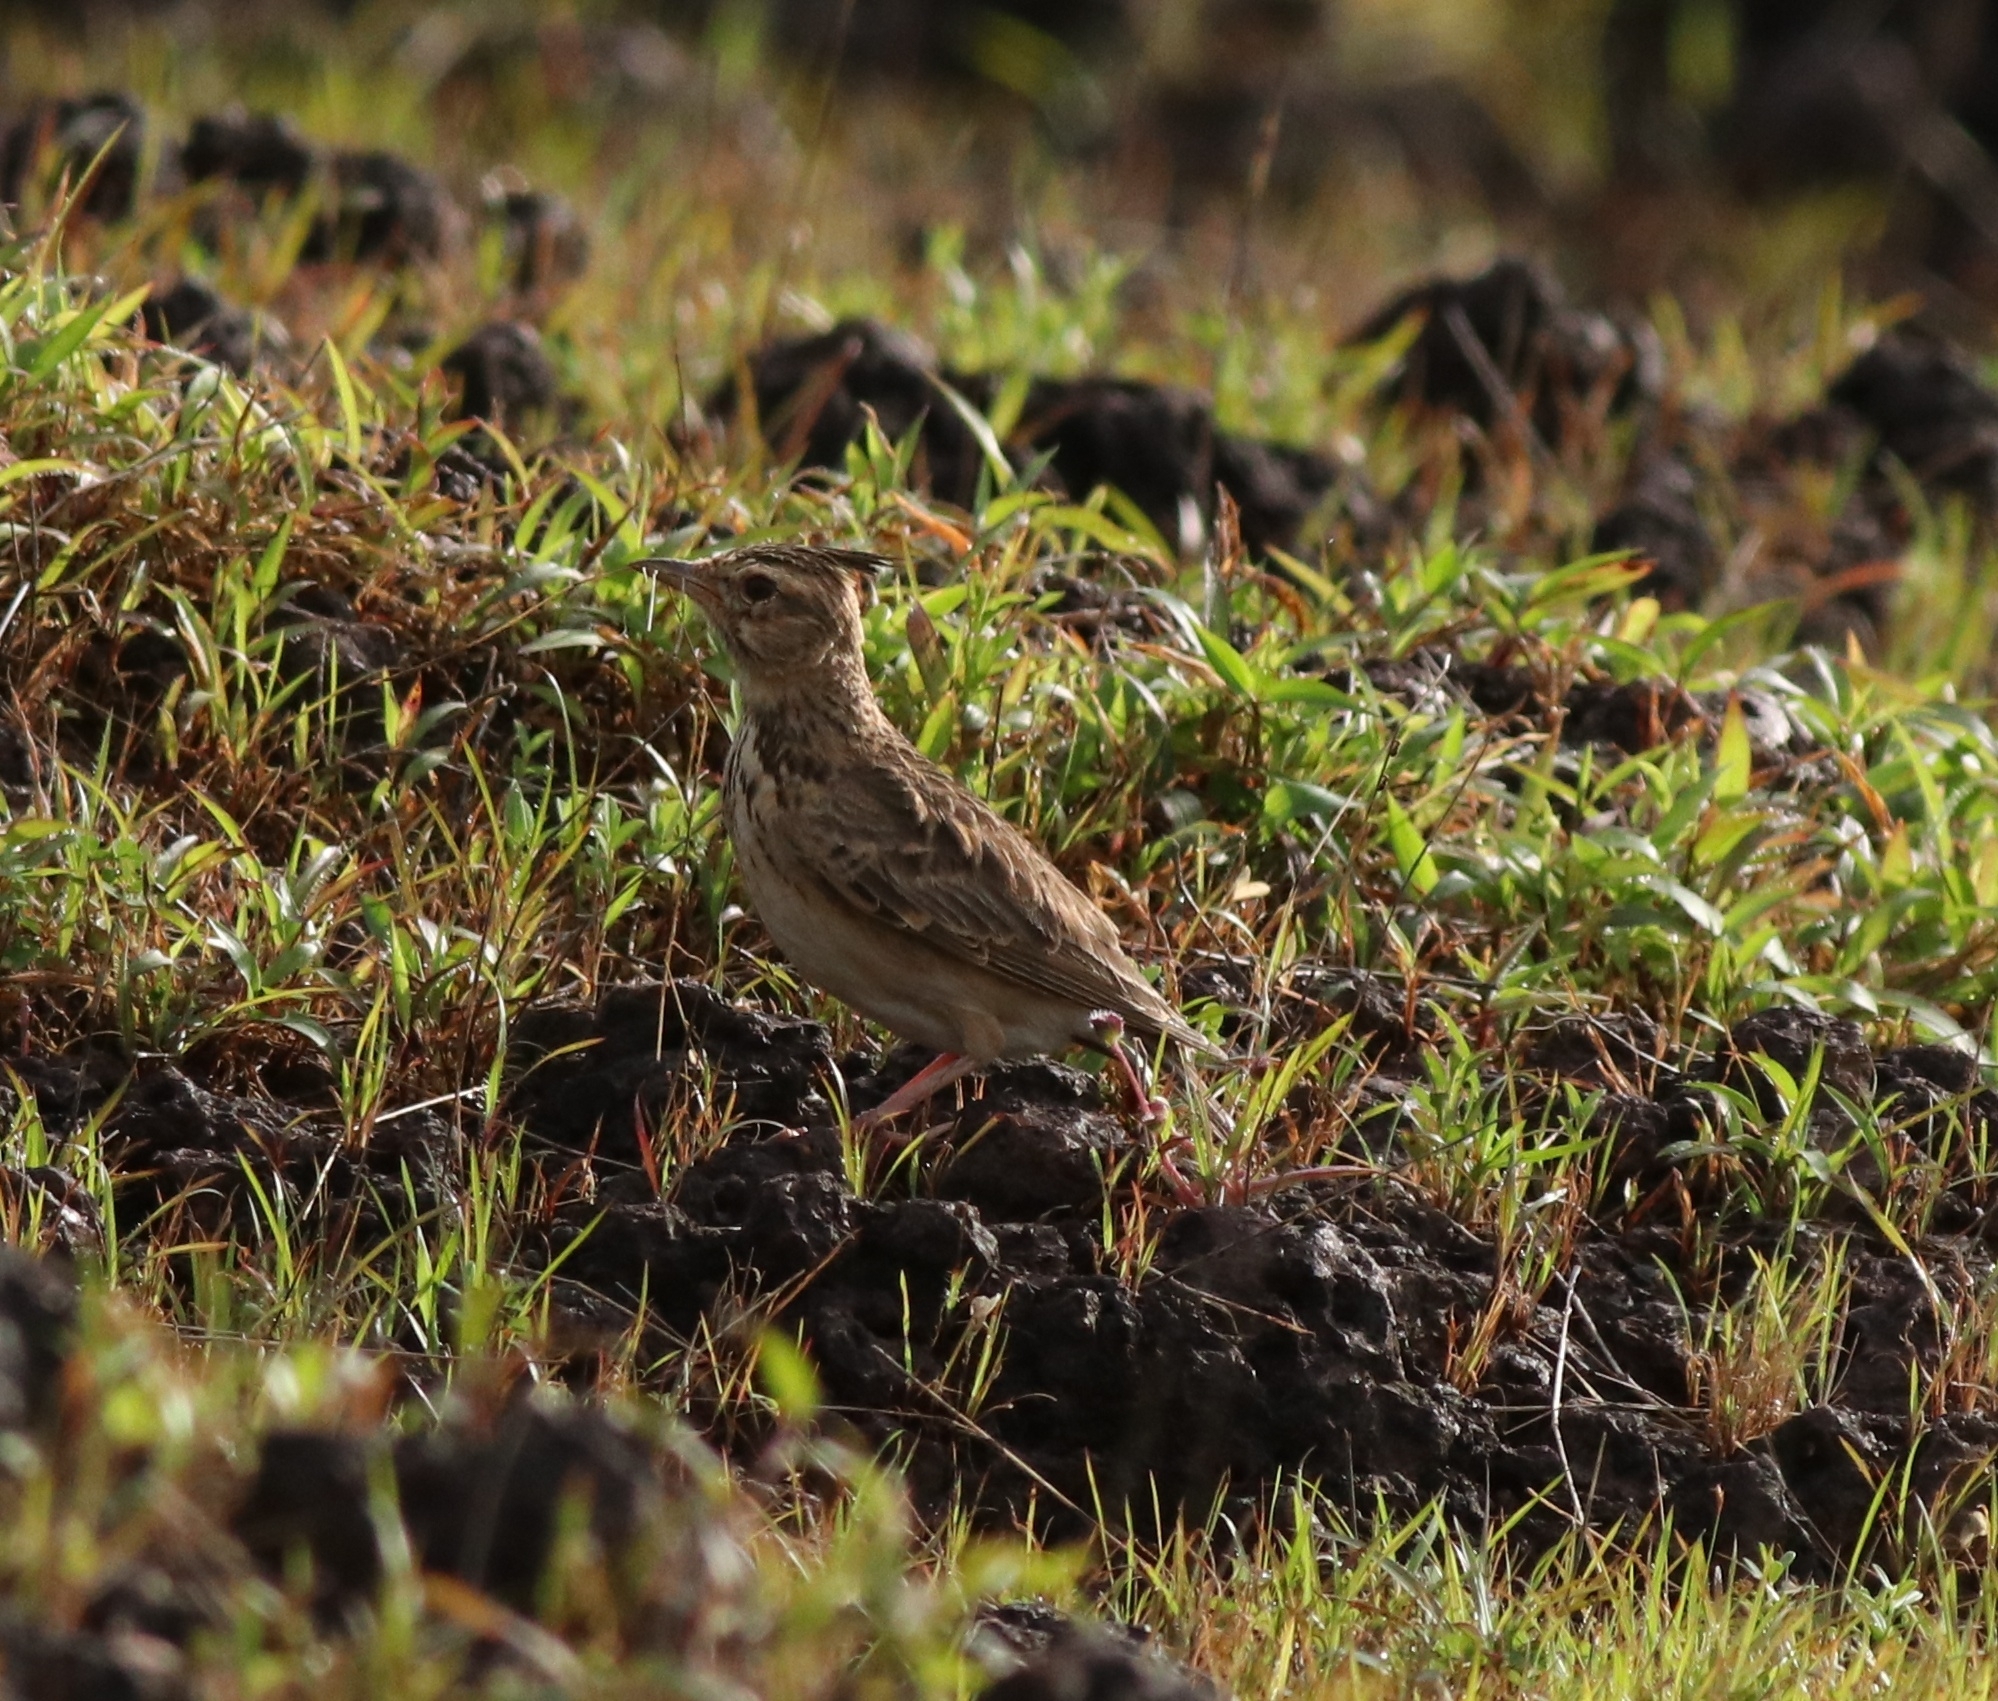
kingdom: Animalia
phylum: Chordata
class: Aves
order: Passeriformes
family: Alaudidae
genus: Galerida
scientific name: Galerida malabarica
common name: Malabar lark
